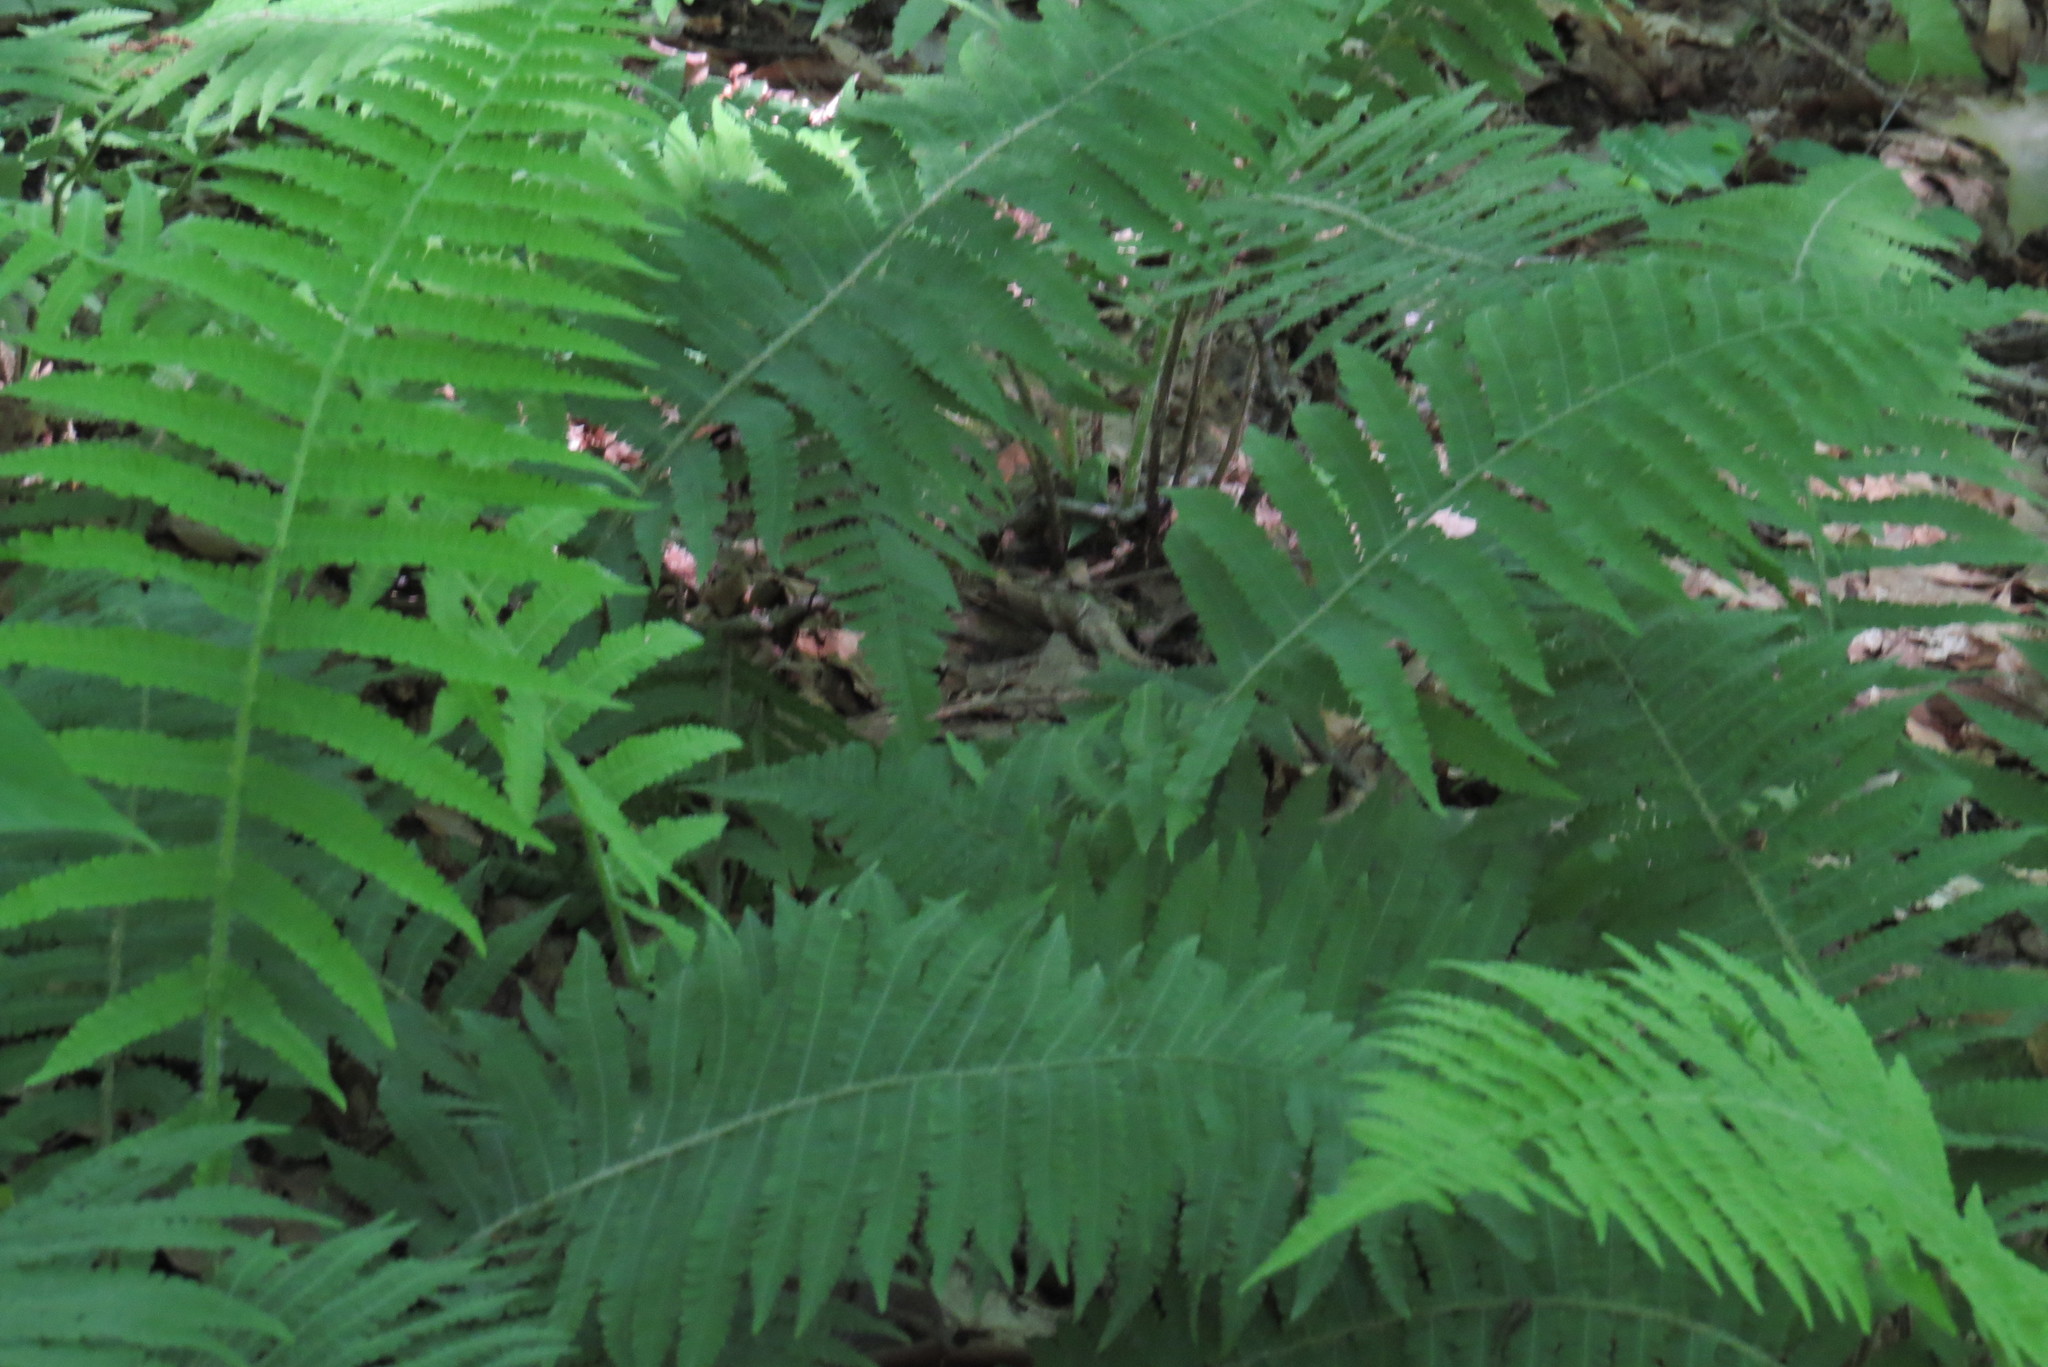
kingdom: Plantae
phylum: Tracheophyta
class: Polypodiopsida
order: Polypodiales
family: Athyriaceae
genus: Deparia
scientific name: Deparia acrostichoides
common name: Silver false spleenwort
